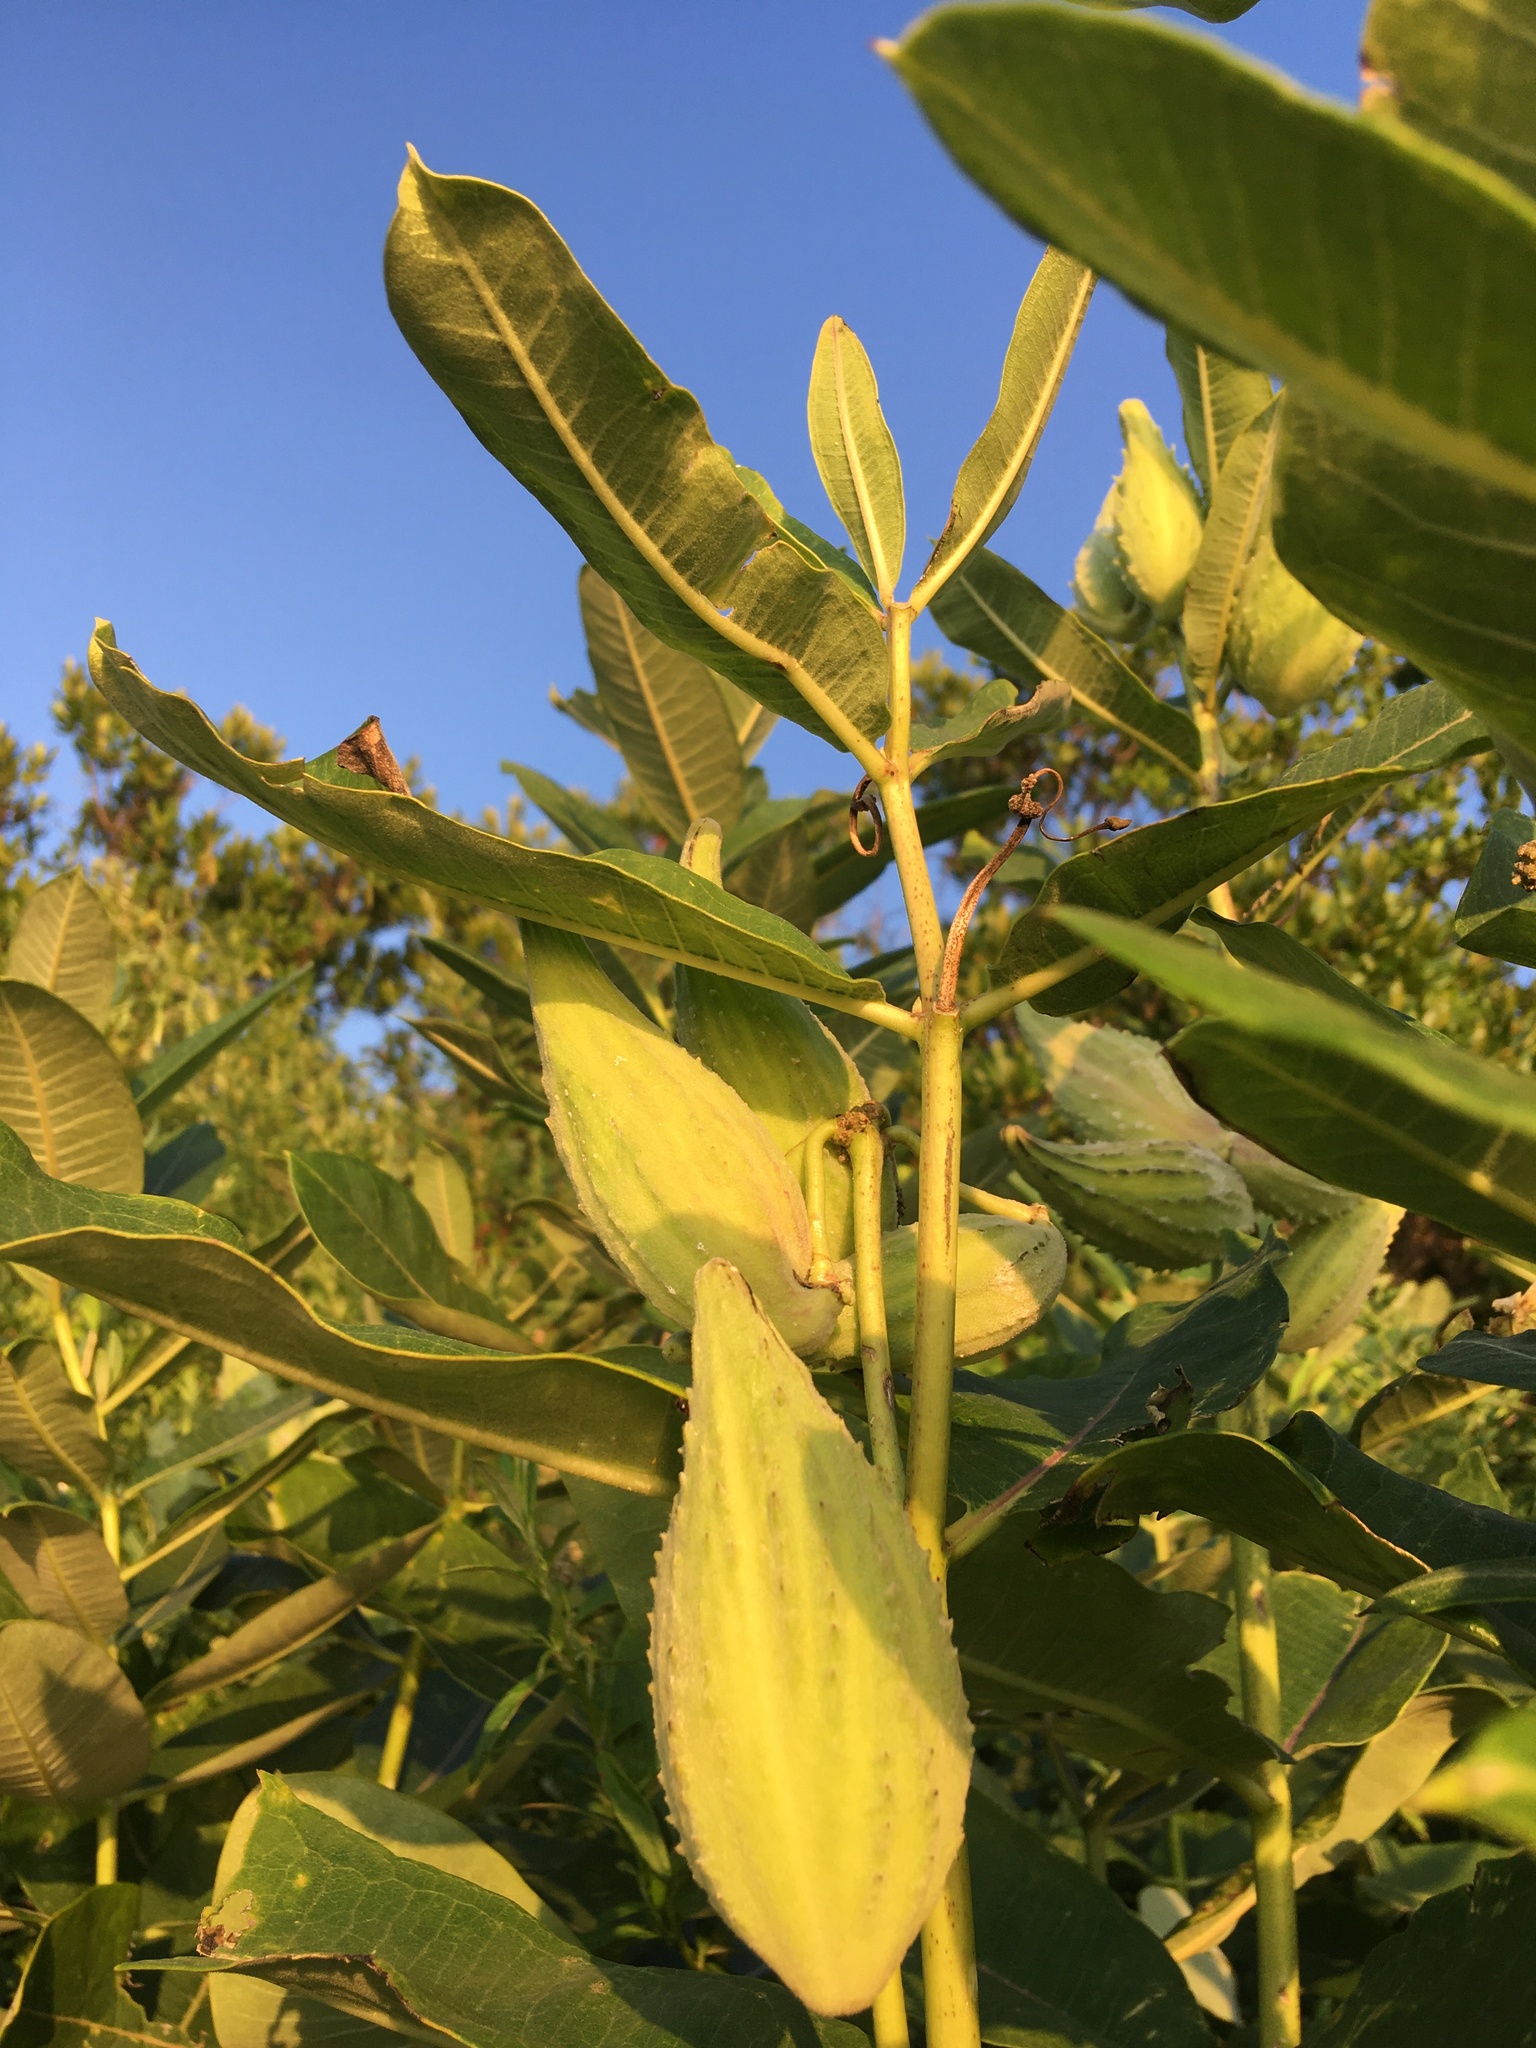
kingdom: Plantae
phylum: Tracheophyta
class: Magnoliopsida
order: Gentianales
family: Apocynaceae
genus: Asclepias
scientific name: Asclepias syriaca
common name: Common milkweed
